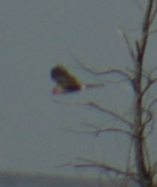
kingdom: Animalia
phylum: Chordata
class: Aves
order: Accipitriformes
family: Accipitridae
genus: Circus
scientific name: Circus cyaneus
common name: Hen harrier
